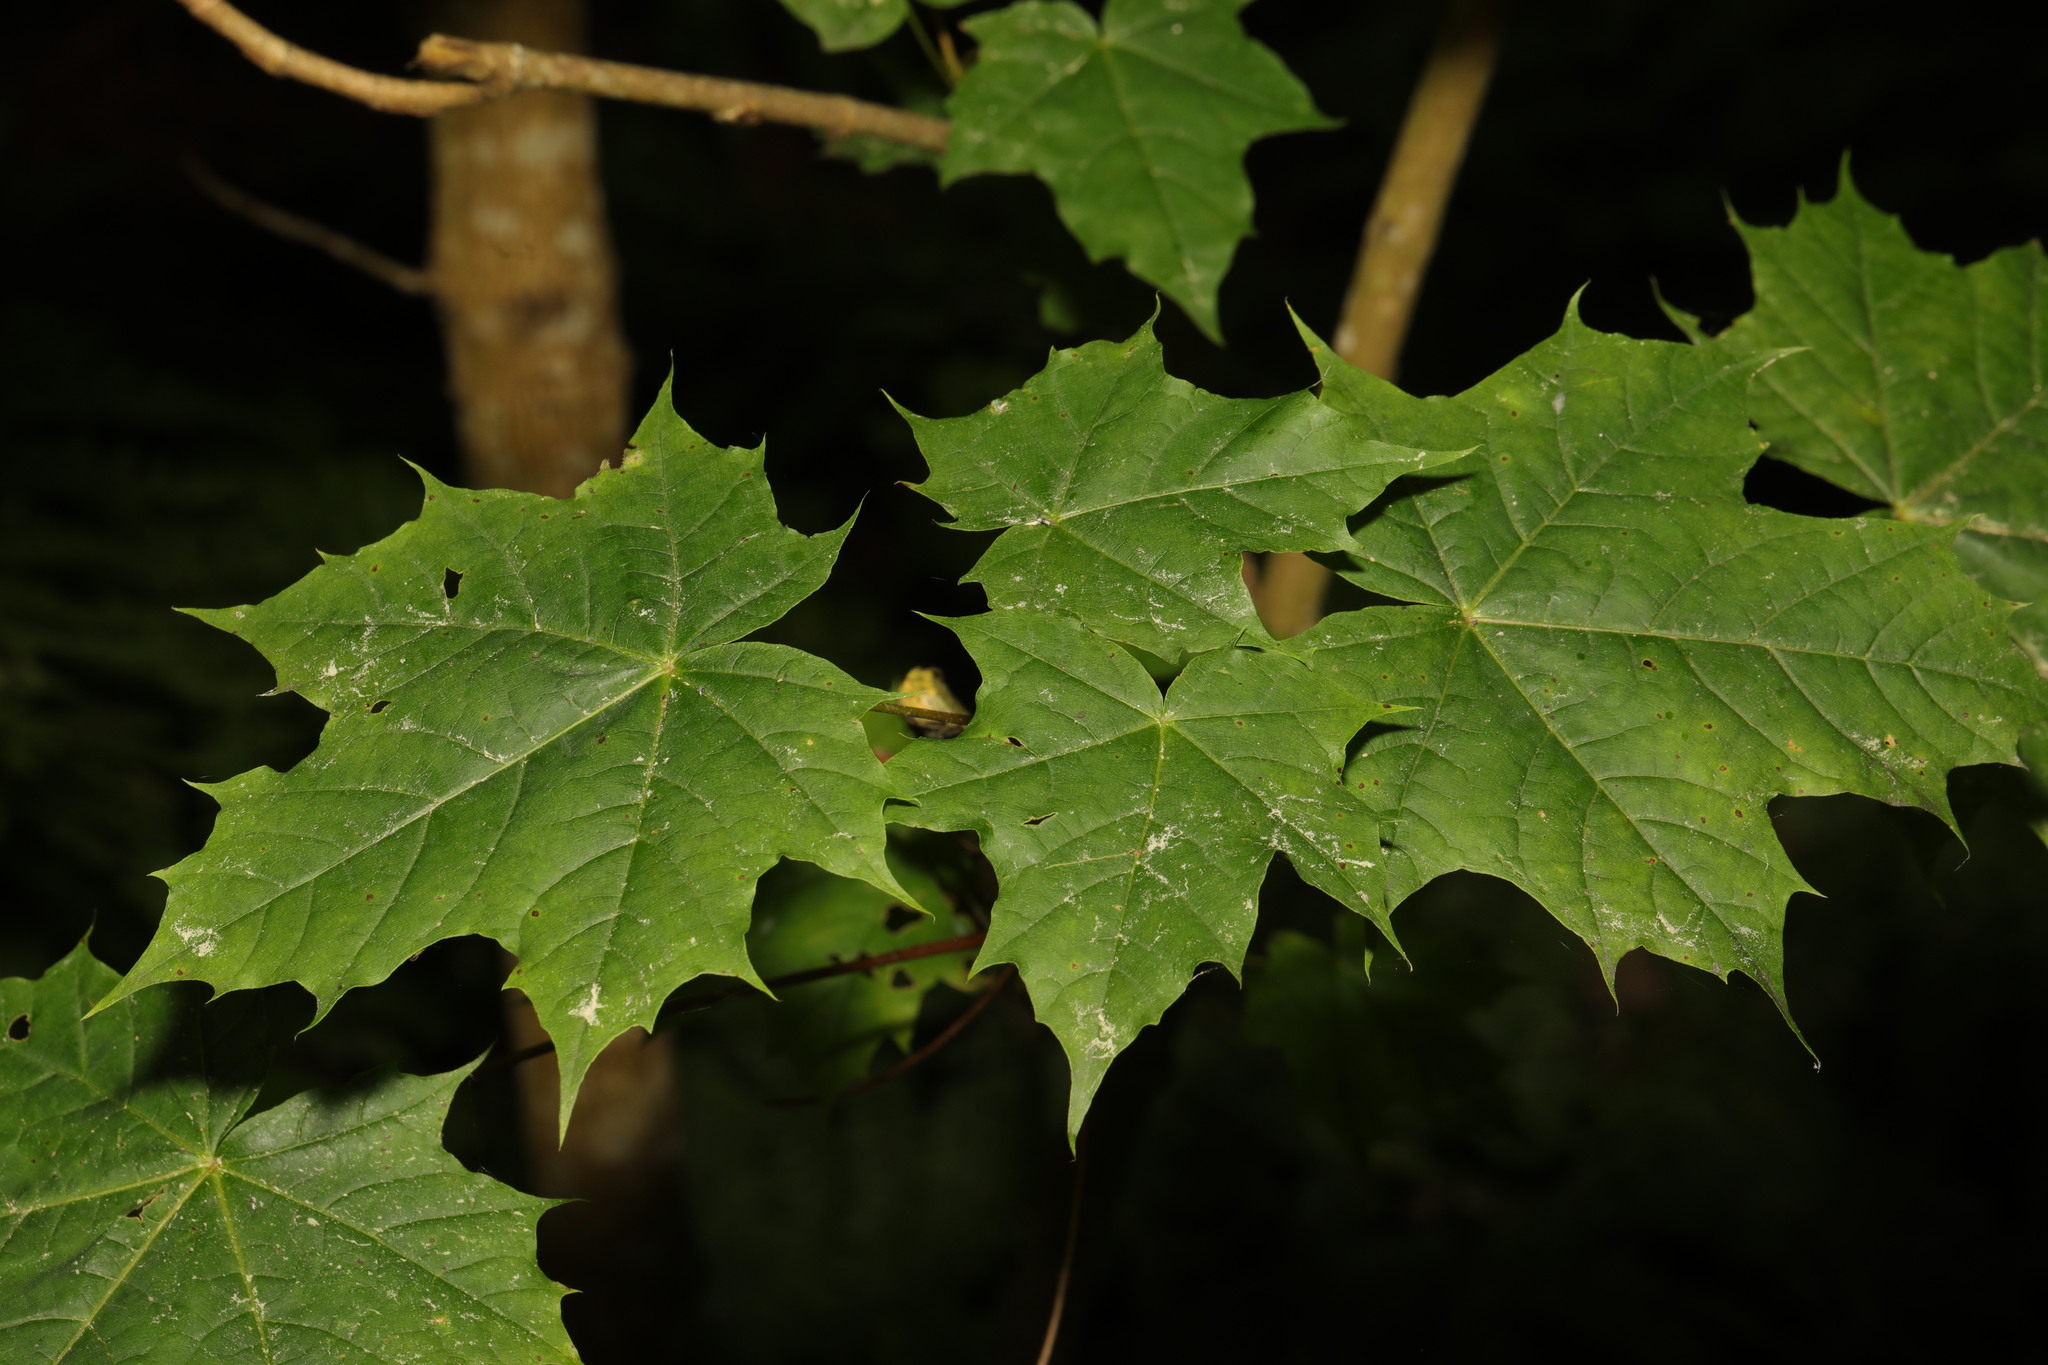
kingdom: Plantae
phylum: Tracheophyta
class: Magnoliopsida
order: Sapindales
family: Sapindaceae
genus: Acer
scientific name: Acer platanoides
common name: Norway maple
